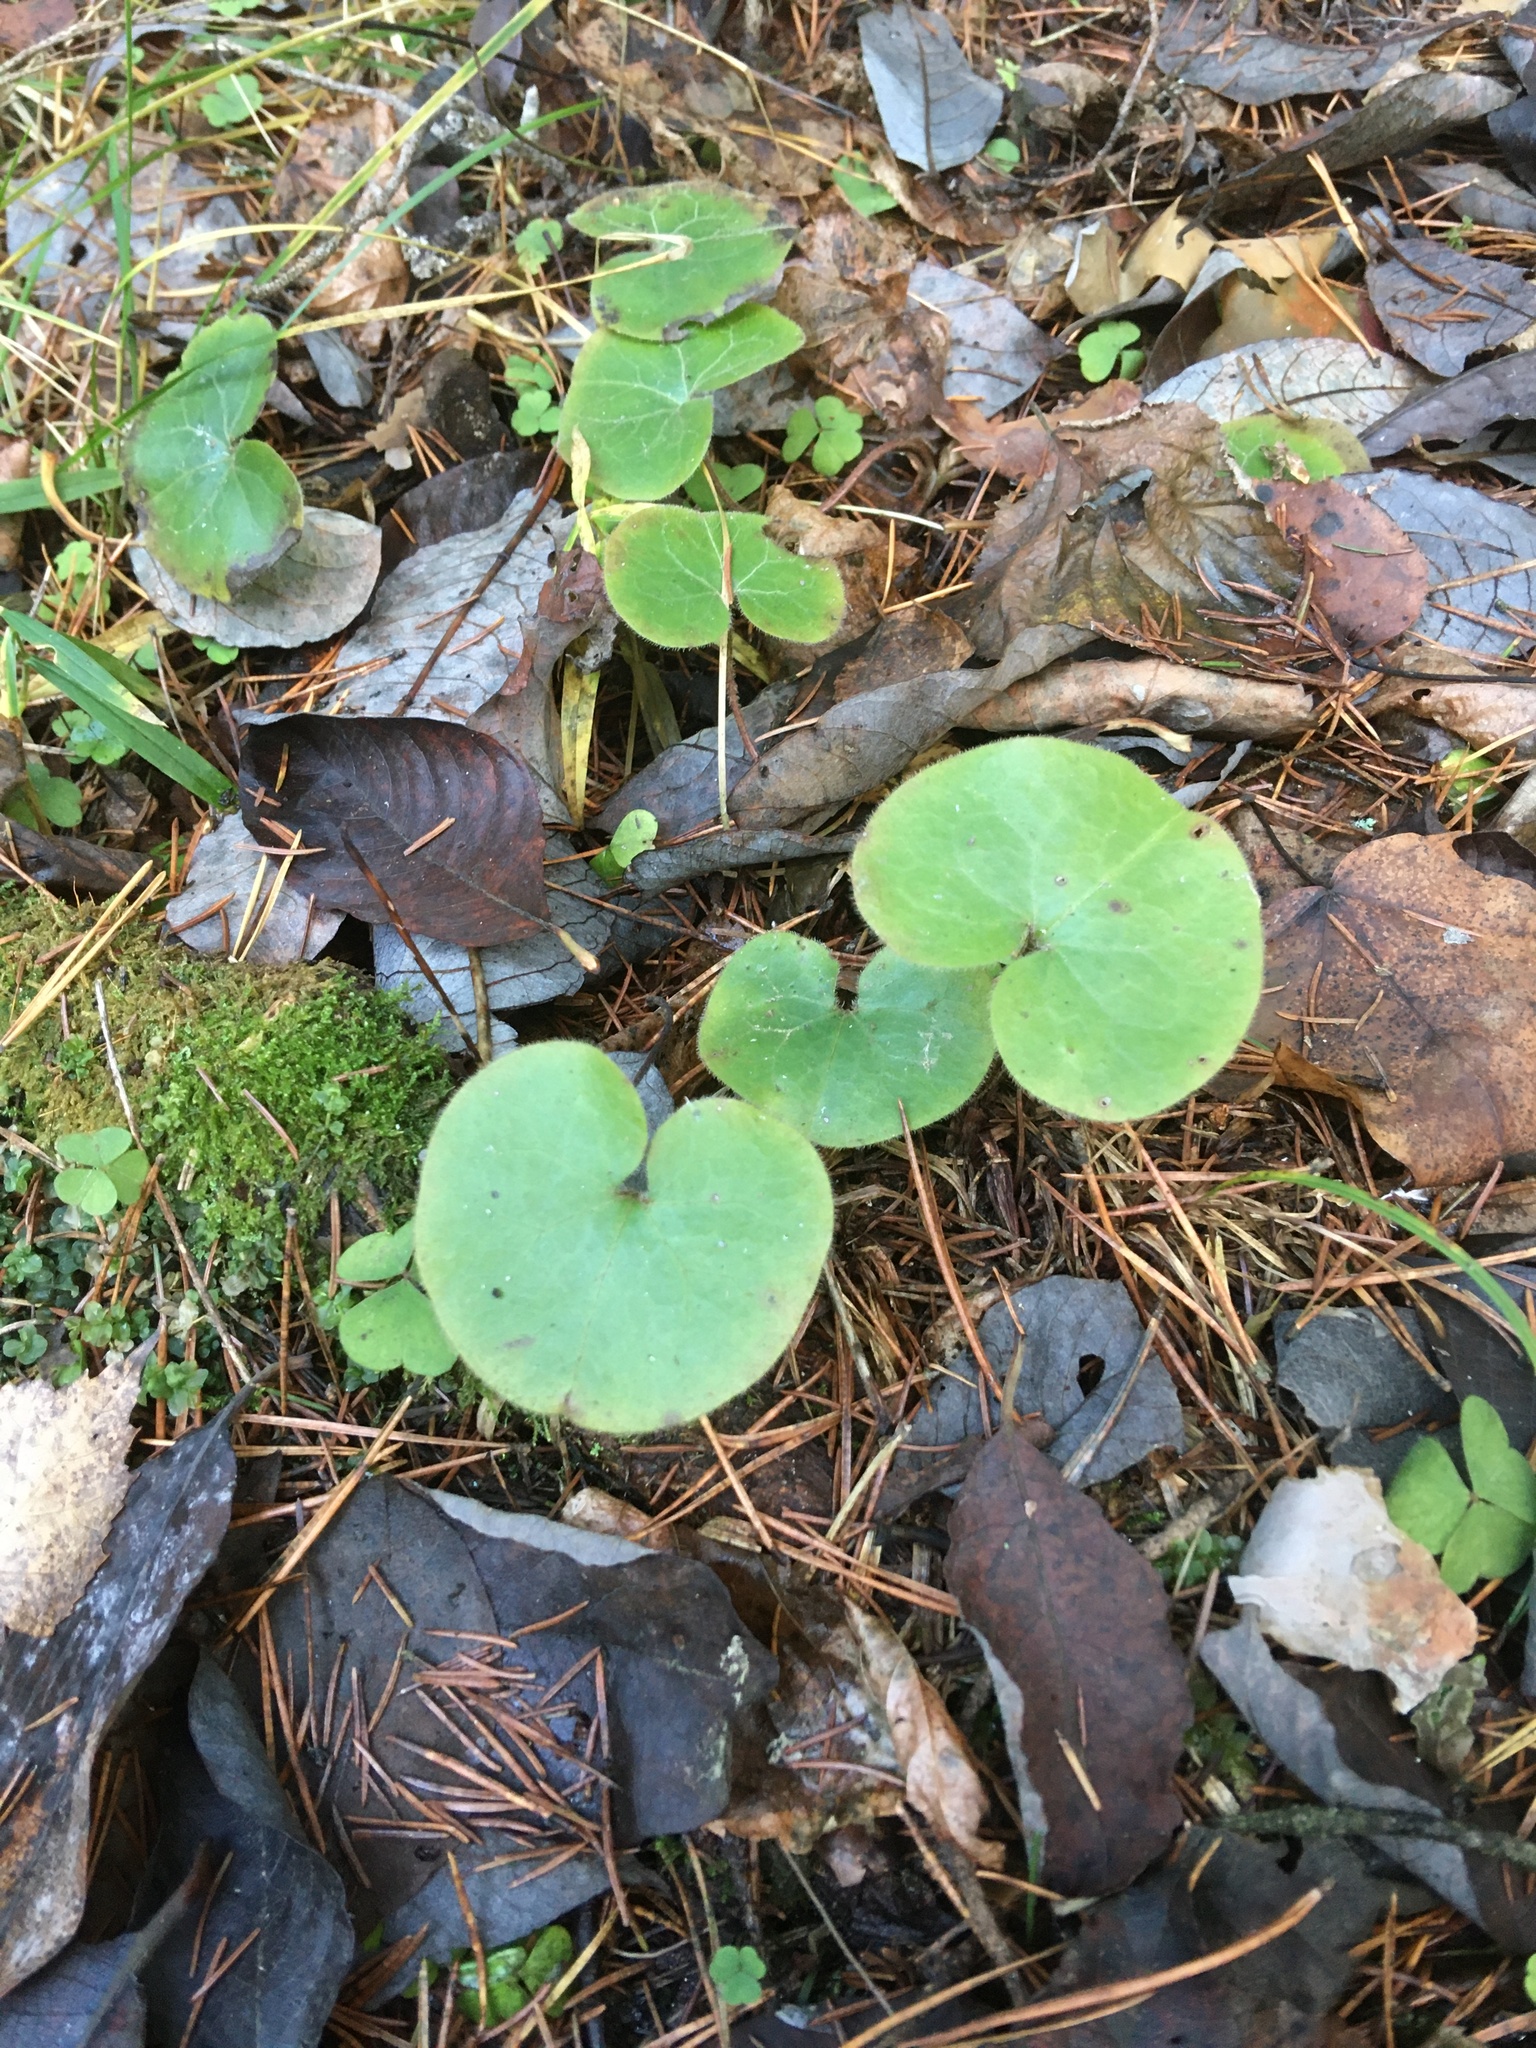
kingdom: Plantae
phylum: Tracheophyta
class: Magnoliopsida
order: Piperales
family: Aristolochiaceae
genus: Asarum
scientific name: Asarum europaeum
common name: Asarabacca
